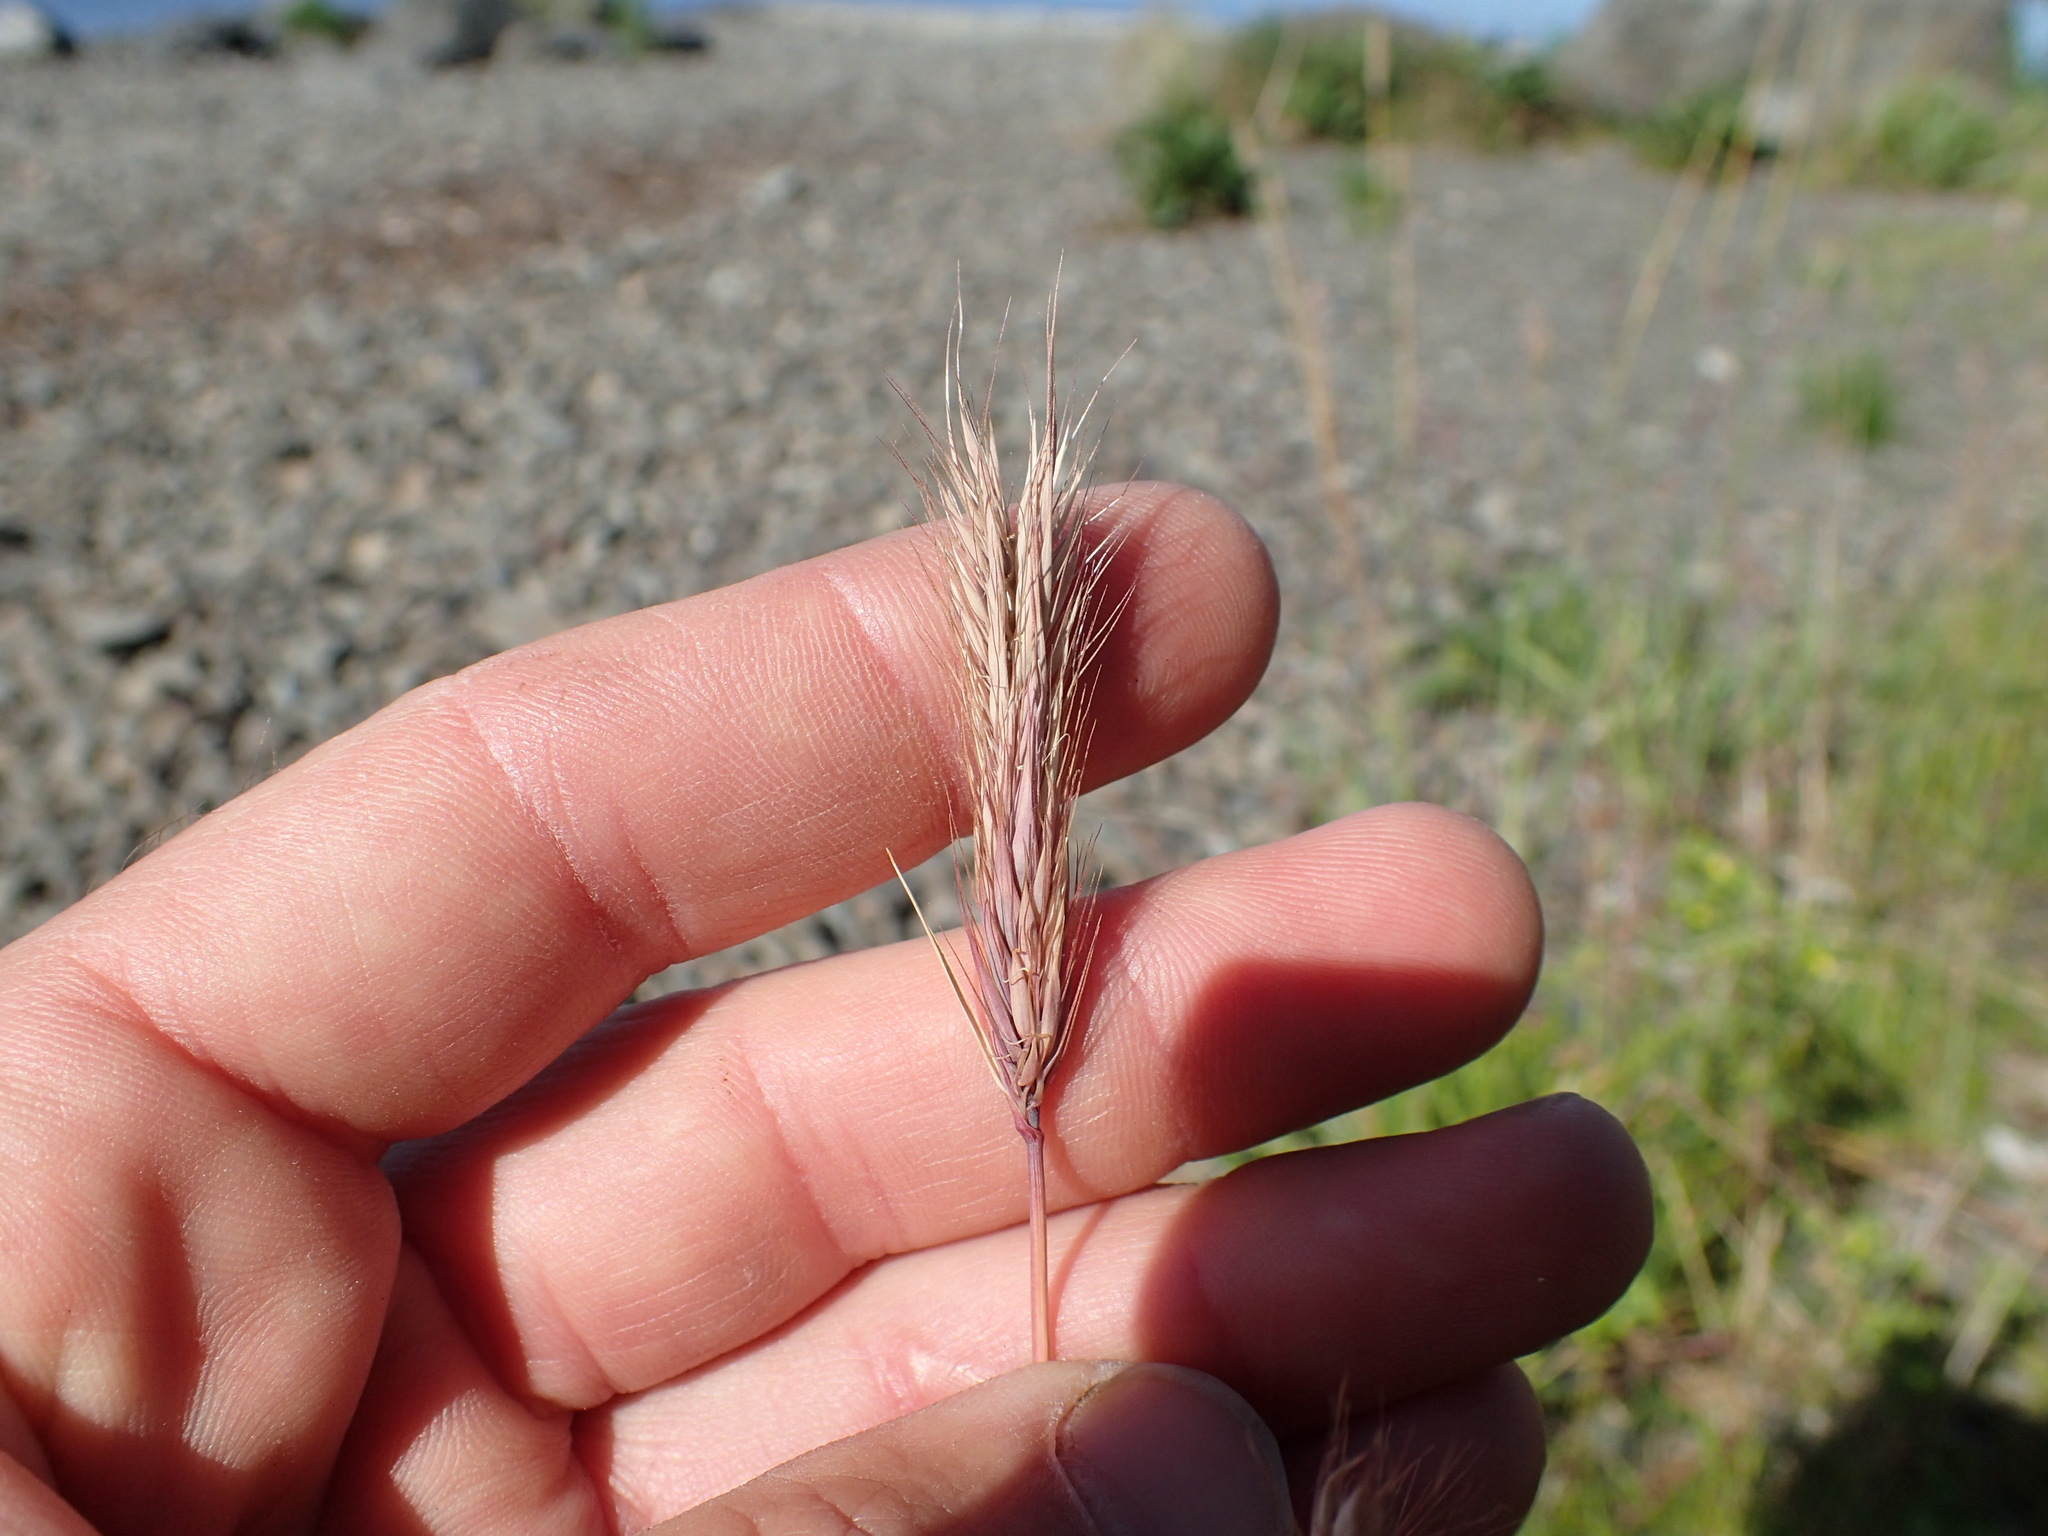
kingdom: Plantae
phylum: Tracheophyta
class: Liliopsida
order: Poales
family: Poaceae
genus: Hordeum
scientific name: Hordeum brachyantherum
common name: Meadow barley
